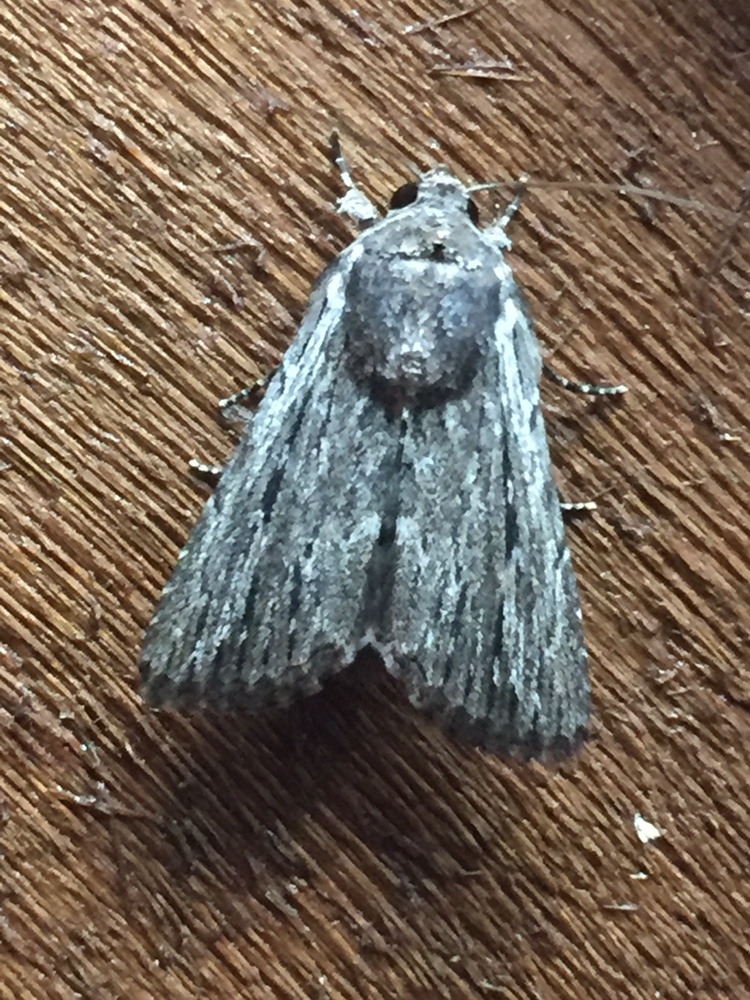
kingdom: Animalia
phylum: Arthropoda
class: Insecta
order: Lepidoptera
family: Noctuidae
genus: Neogalea
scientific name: Neogalea sunia
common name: Lantana stick caterpillar
